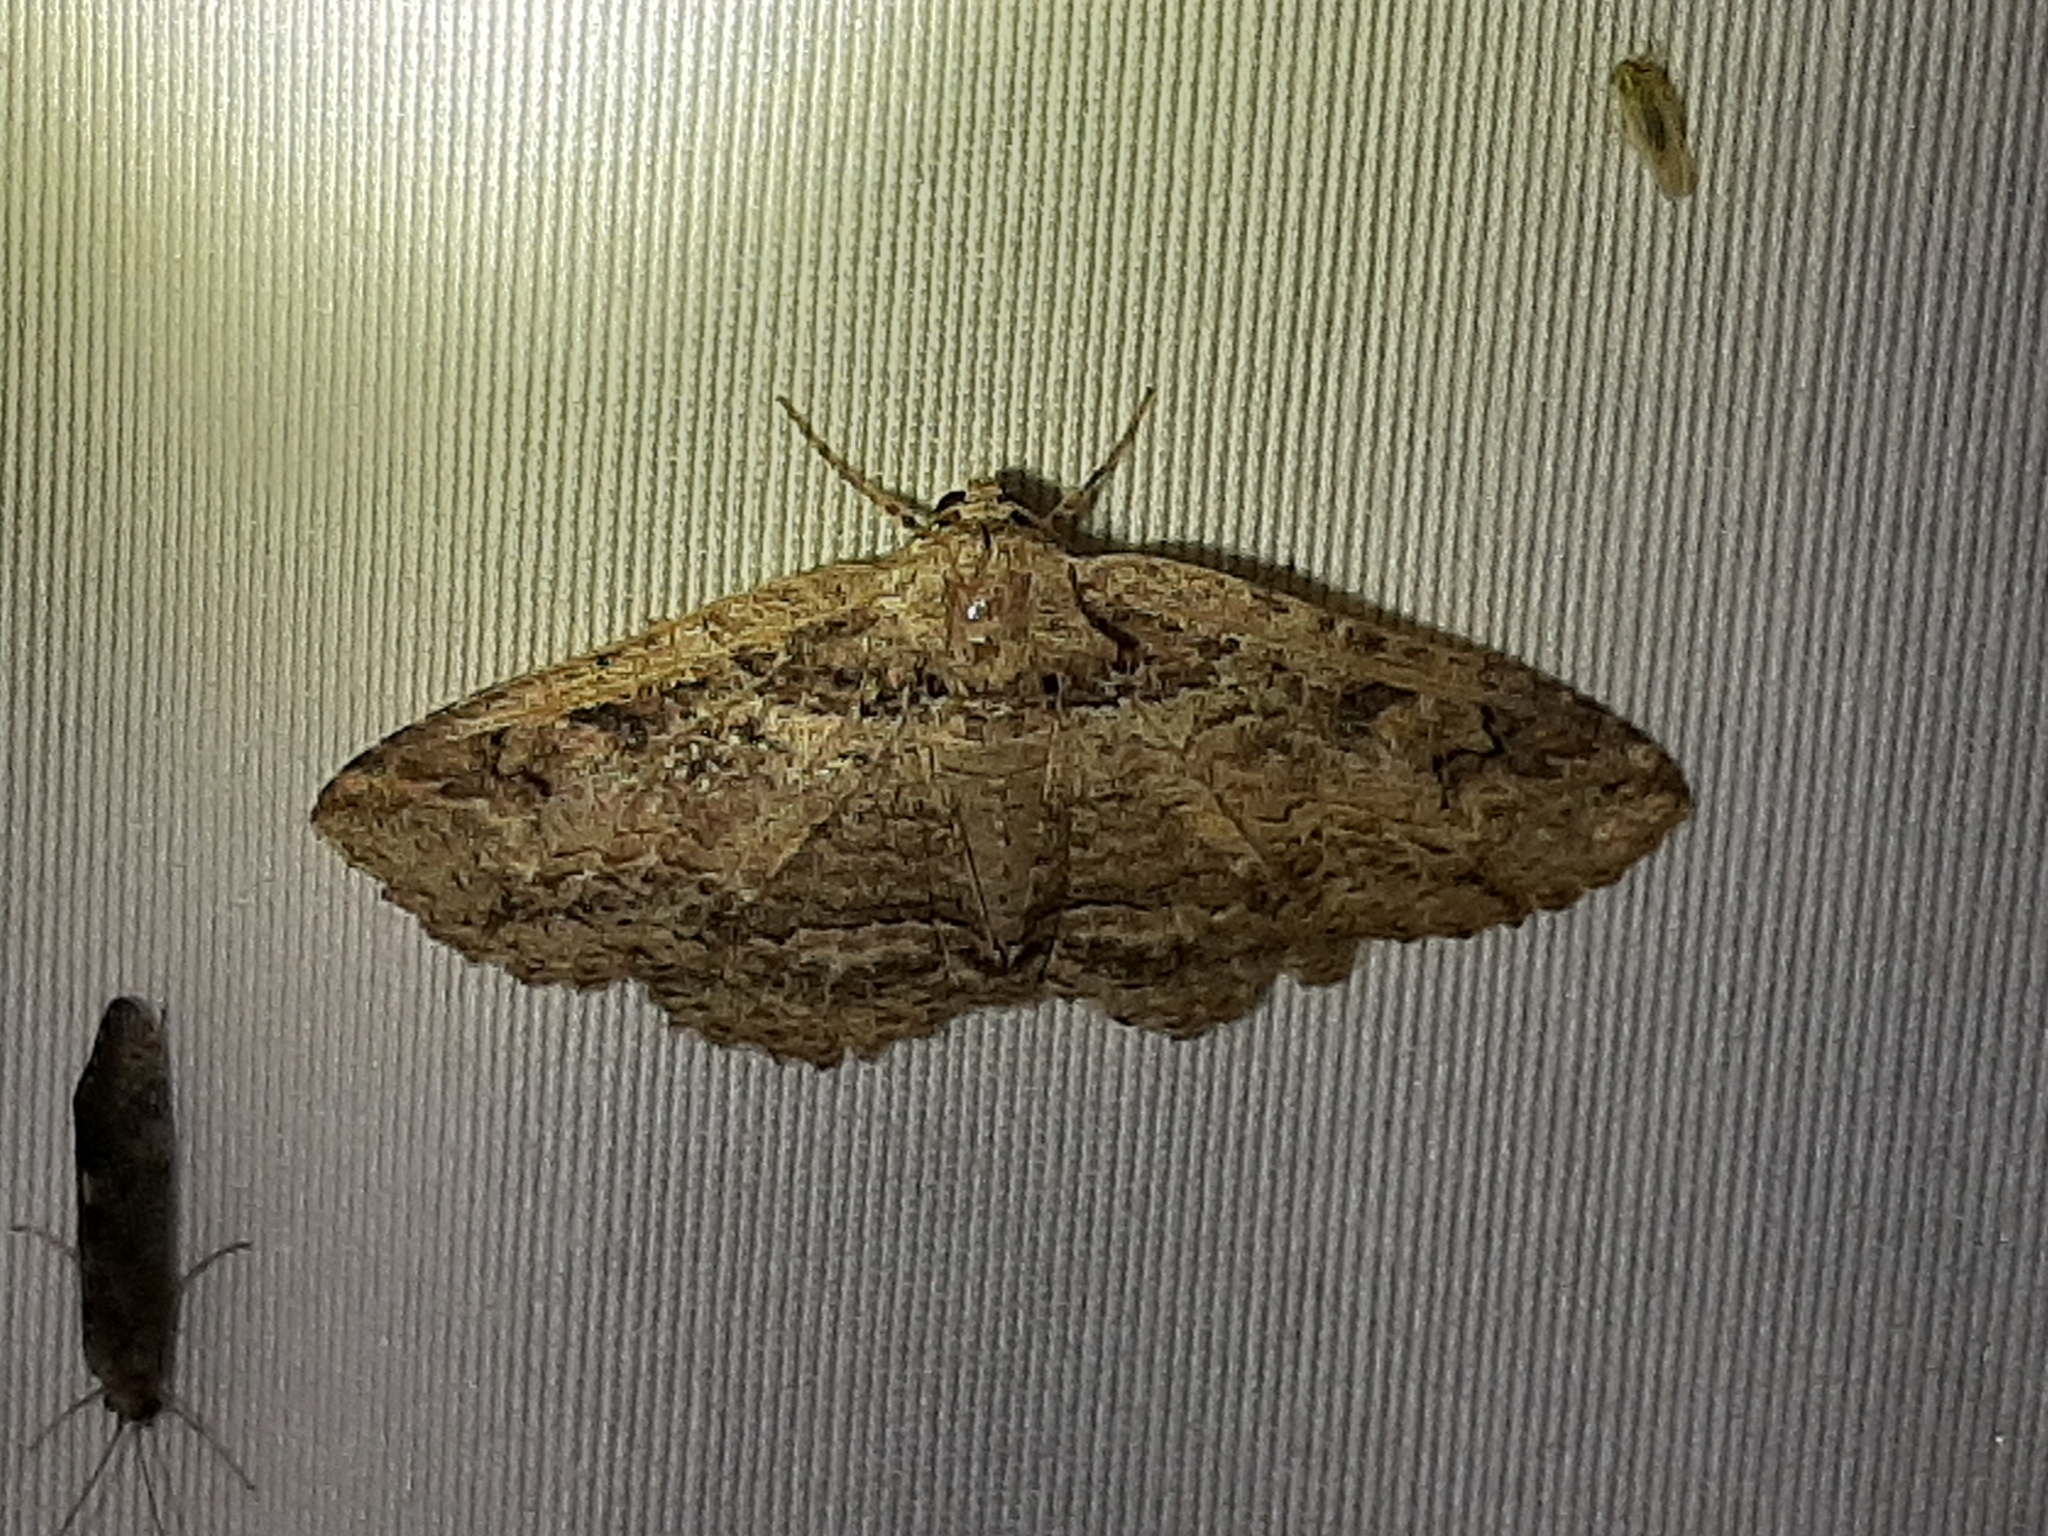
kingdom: Animalia
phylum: Arthropoda
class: Insecta
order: Lepidoptera
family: Erebidae
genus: Zale
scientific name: Zale galbanata
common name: Maple zale
